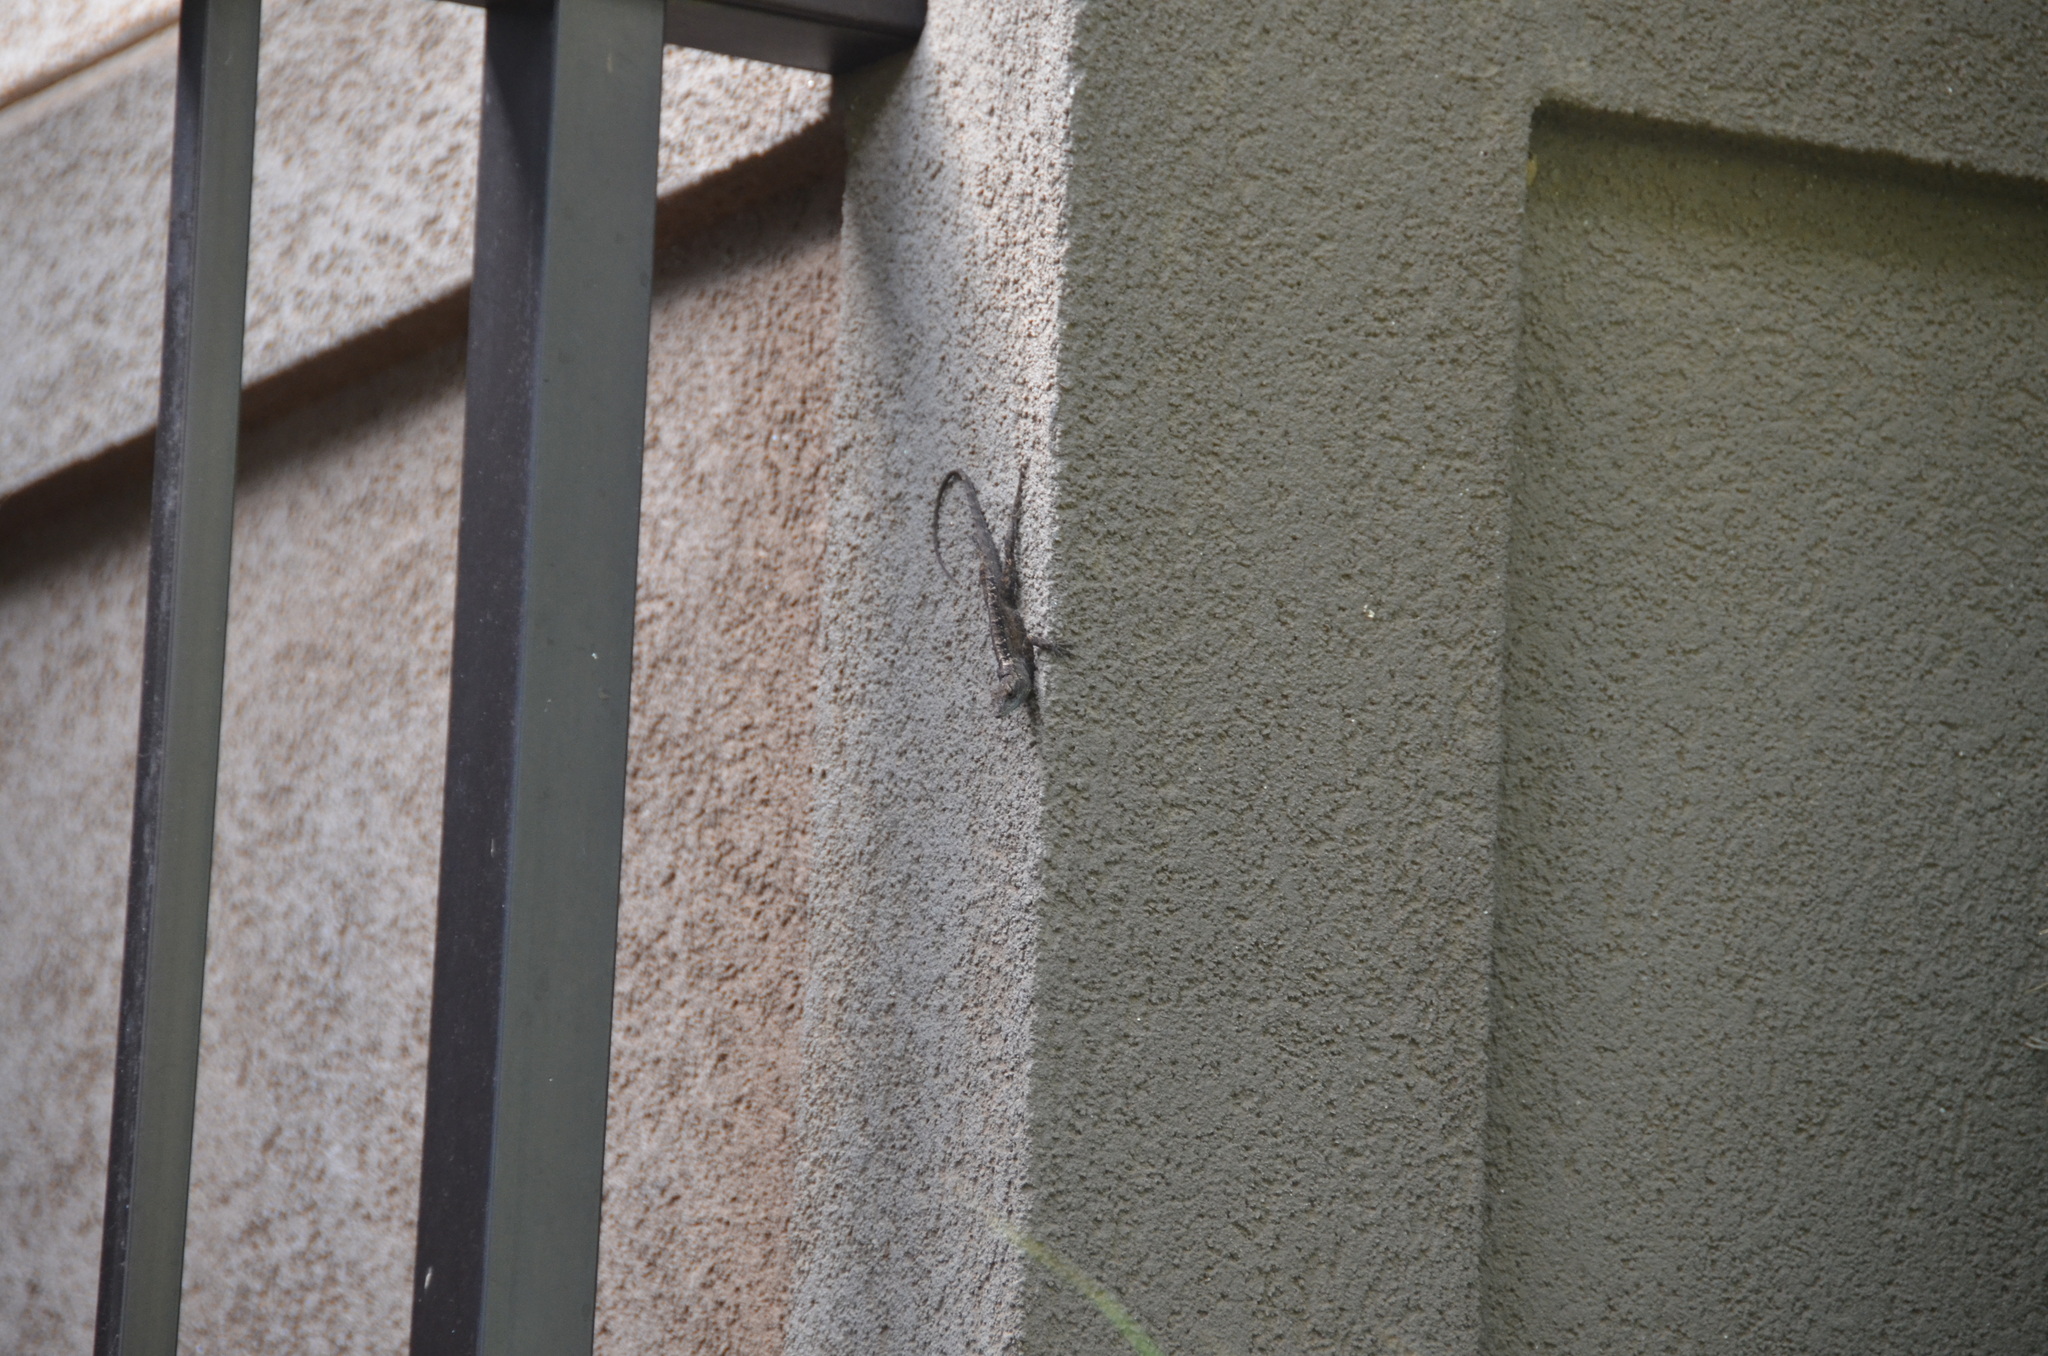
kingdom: Animalia
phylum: Chordata
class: Squamata
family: Dactyloidae
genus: Anolis
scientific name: Anolis sagrei
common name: Brown anole
